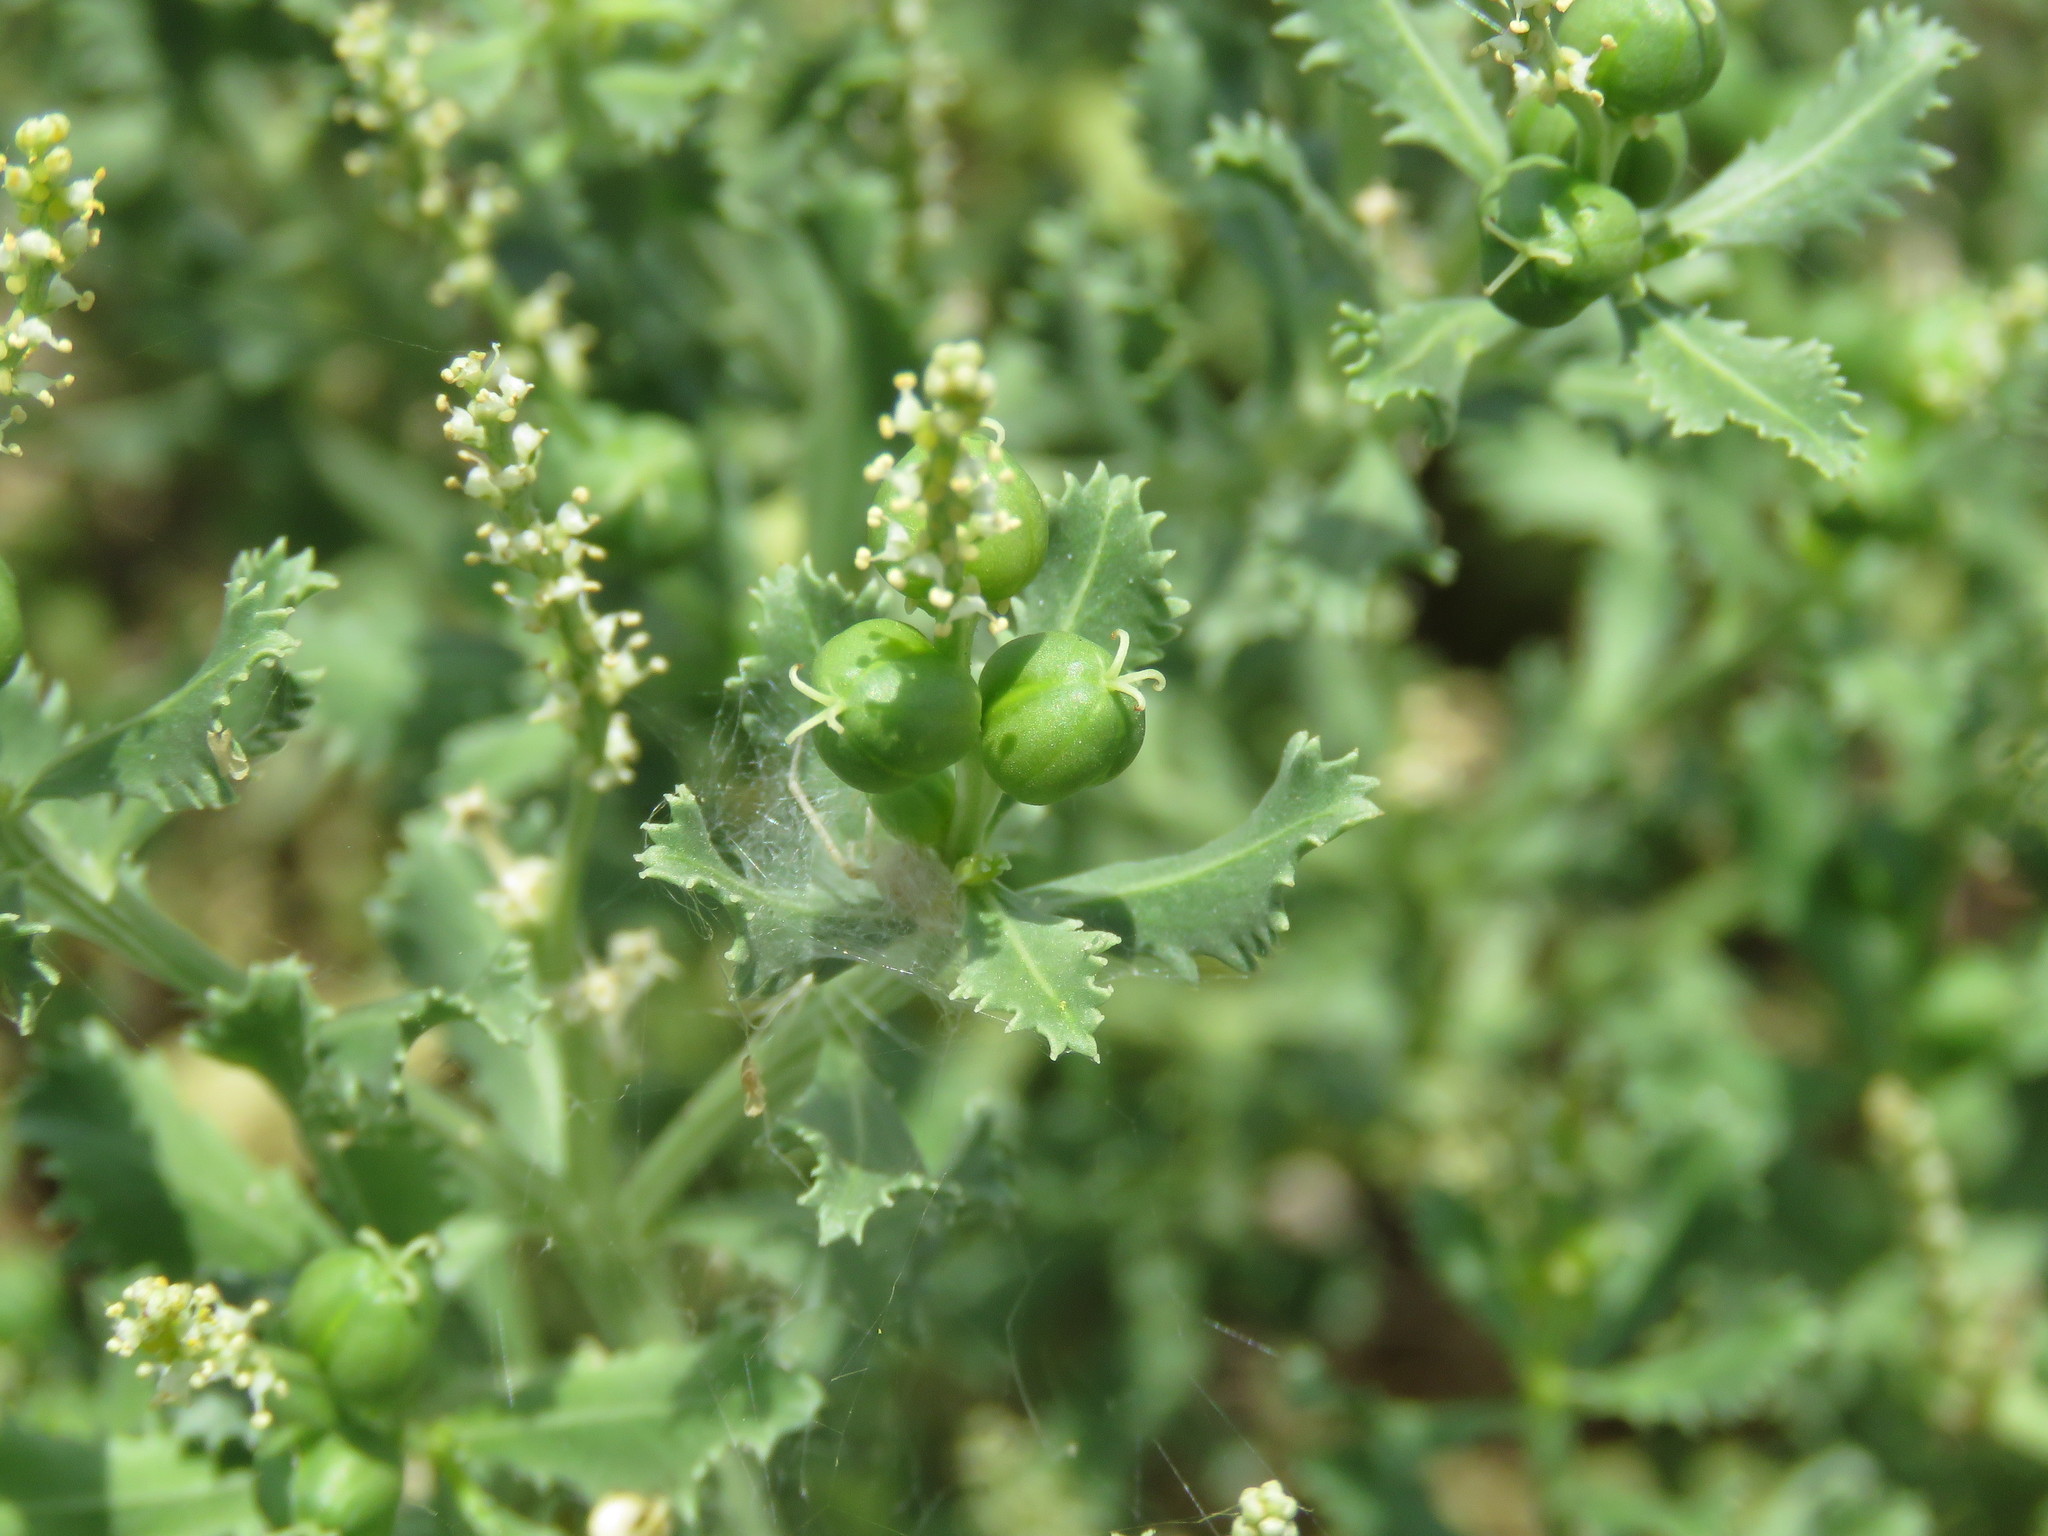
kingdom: Plantae
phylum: Tracheophyta
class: Magnoliopsida
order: Malpighiales
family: Euphorbiaceae
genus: Stillingia
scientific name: Stillingia treculiana
